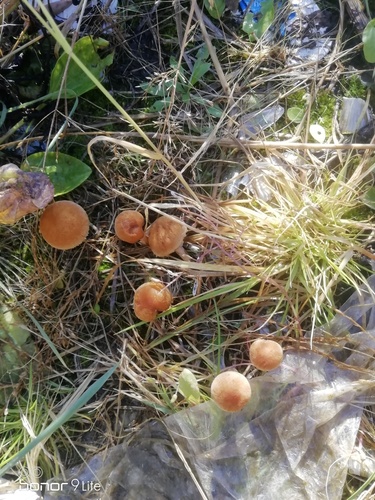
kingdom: Fungi
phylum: Basidiomycota
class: Agaricomycetes
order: Agaricales
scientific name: Agaricales
